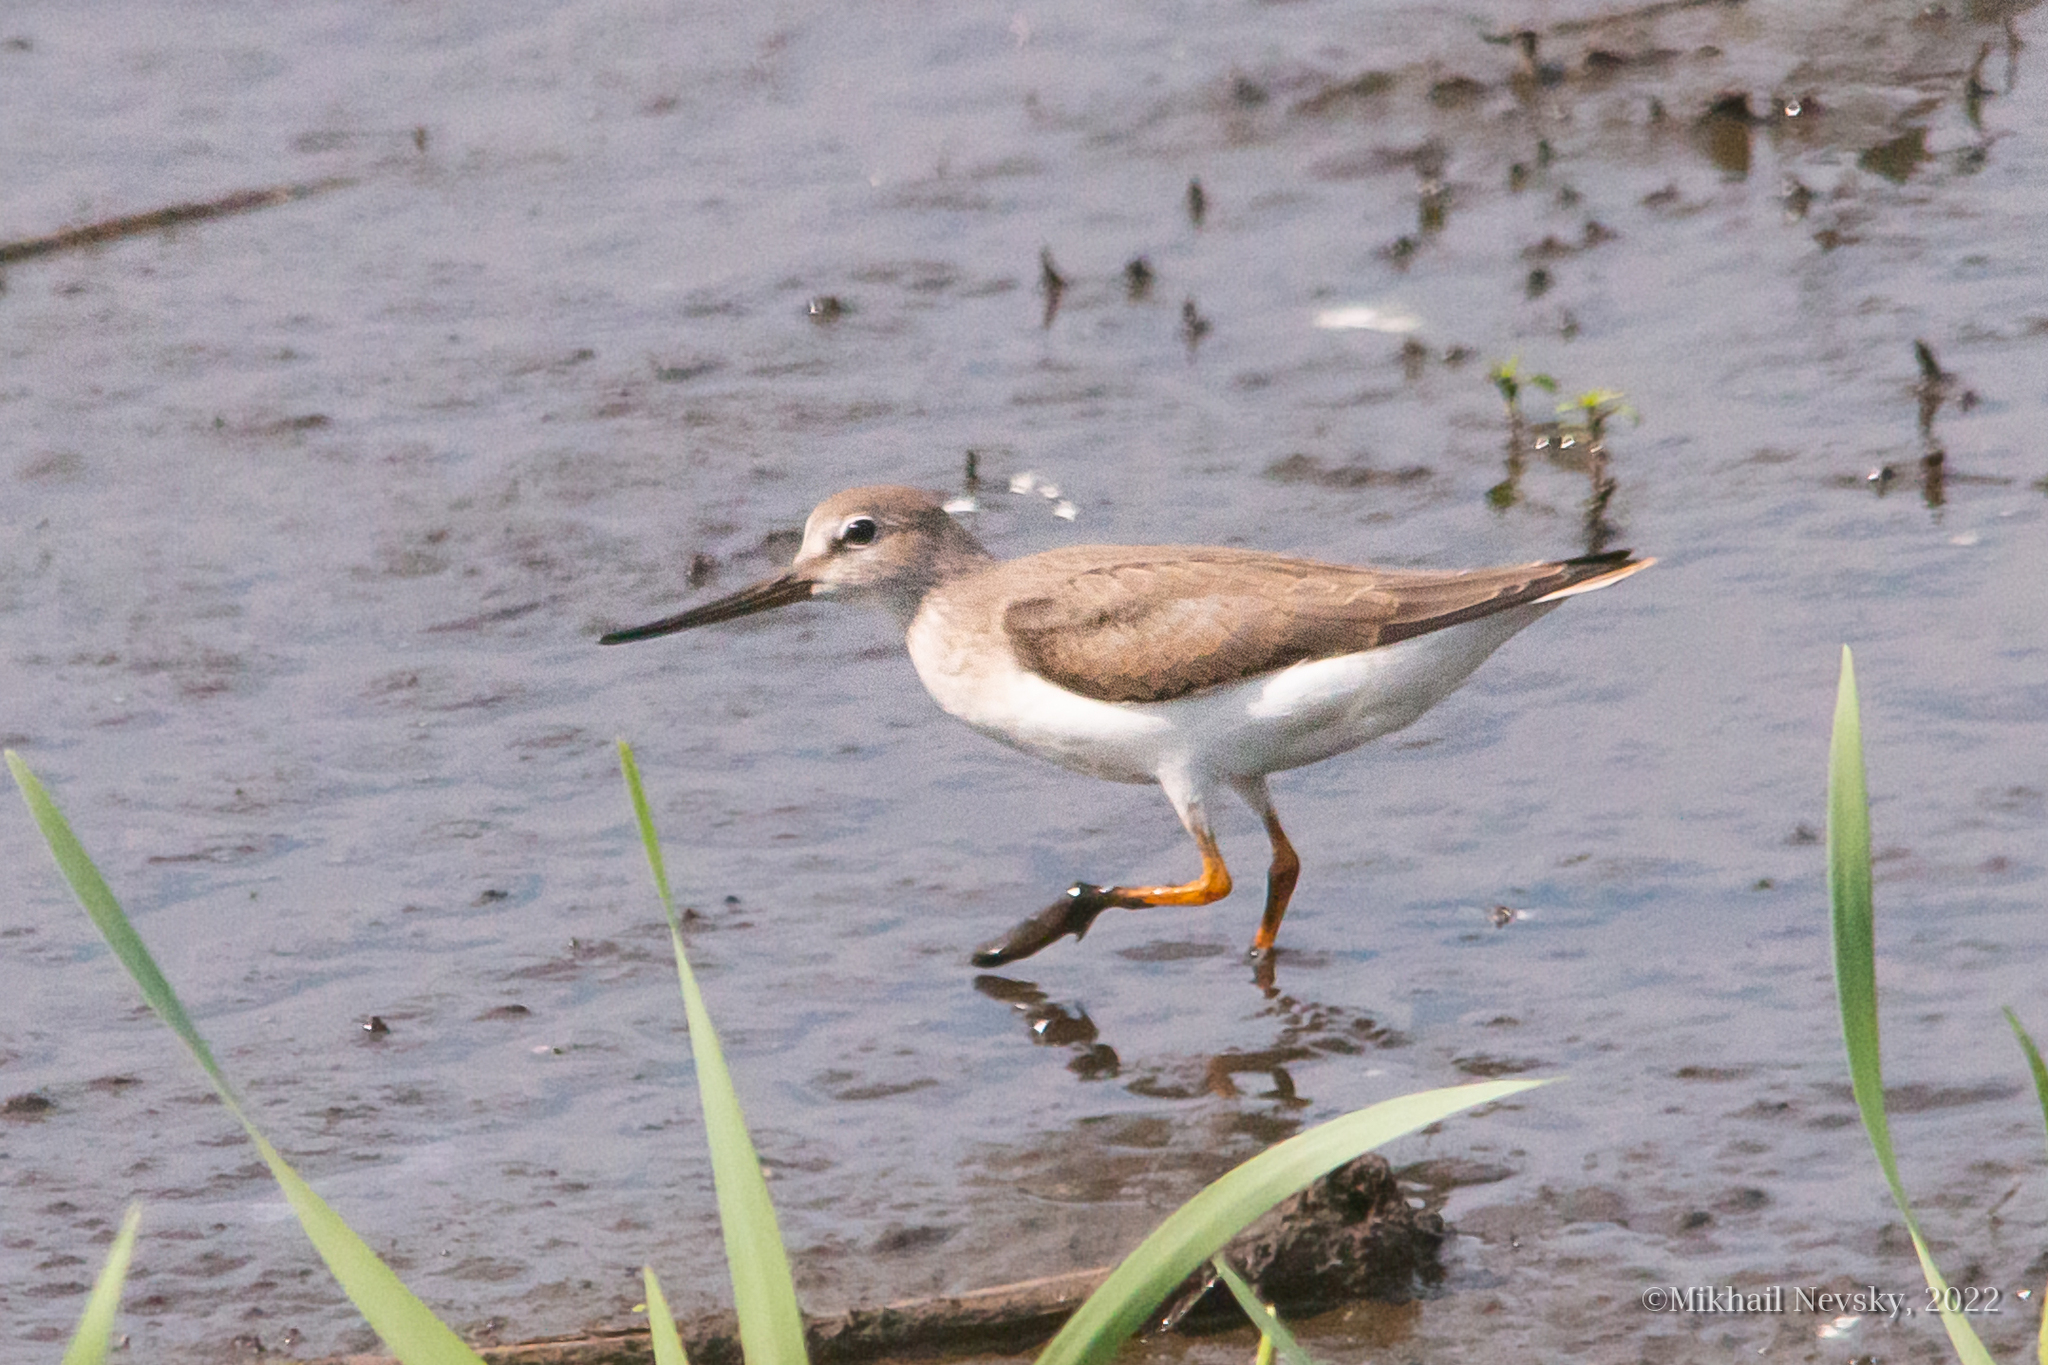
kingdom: Animalia
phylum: Chordata
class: Aves
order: Charadriiformes
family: Scolopacidae
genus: Xenus
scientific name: Xenus cinereus
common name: Terek sandpiper
